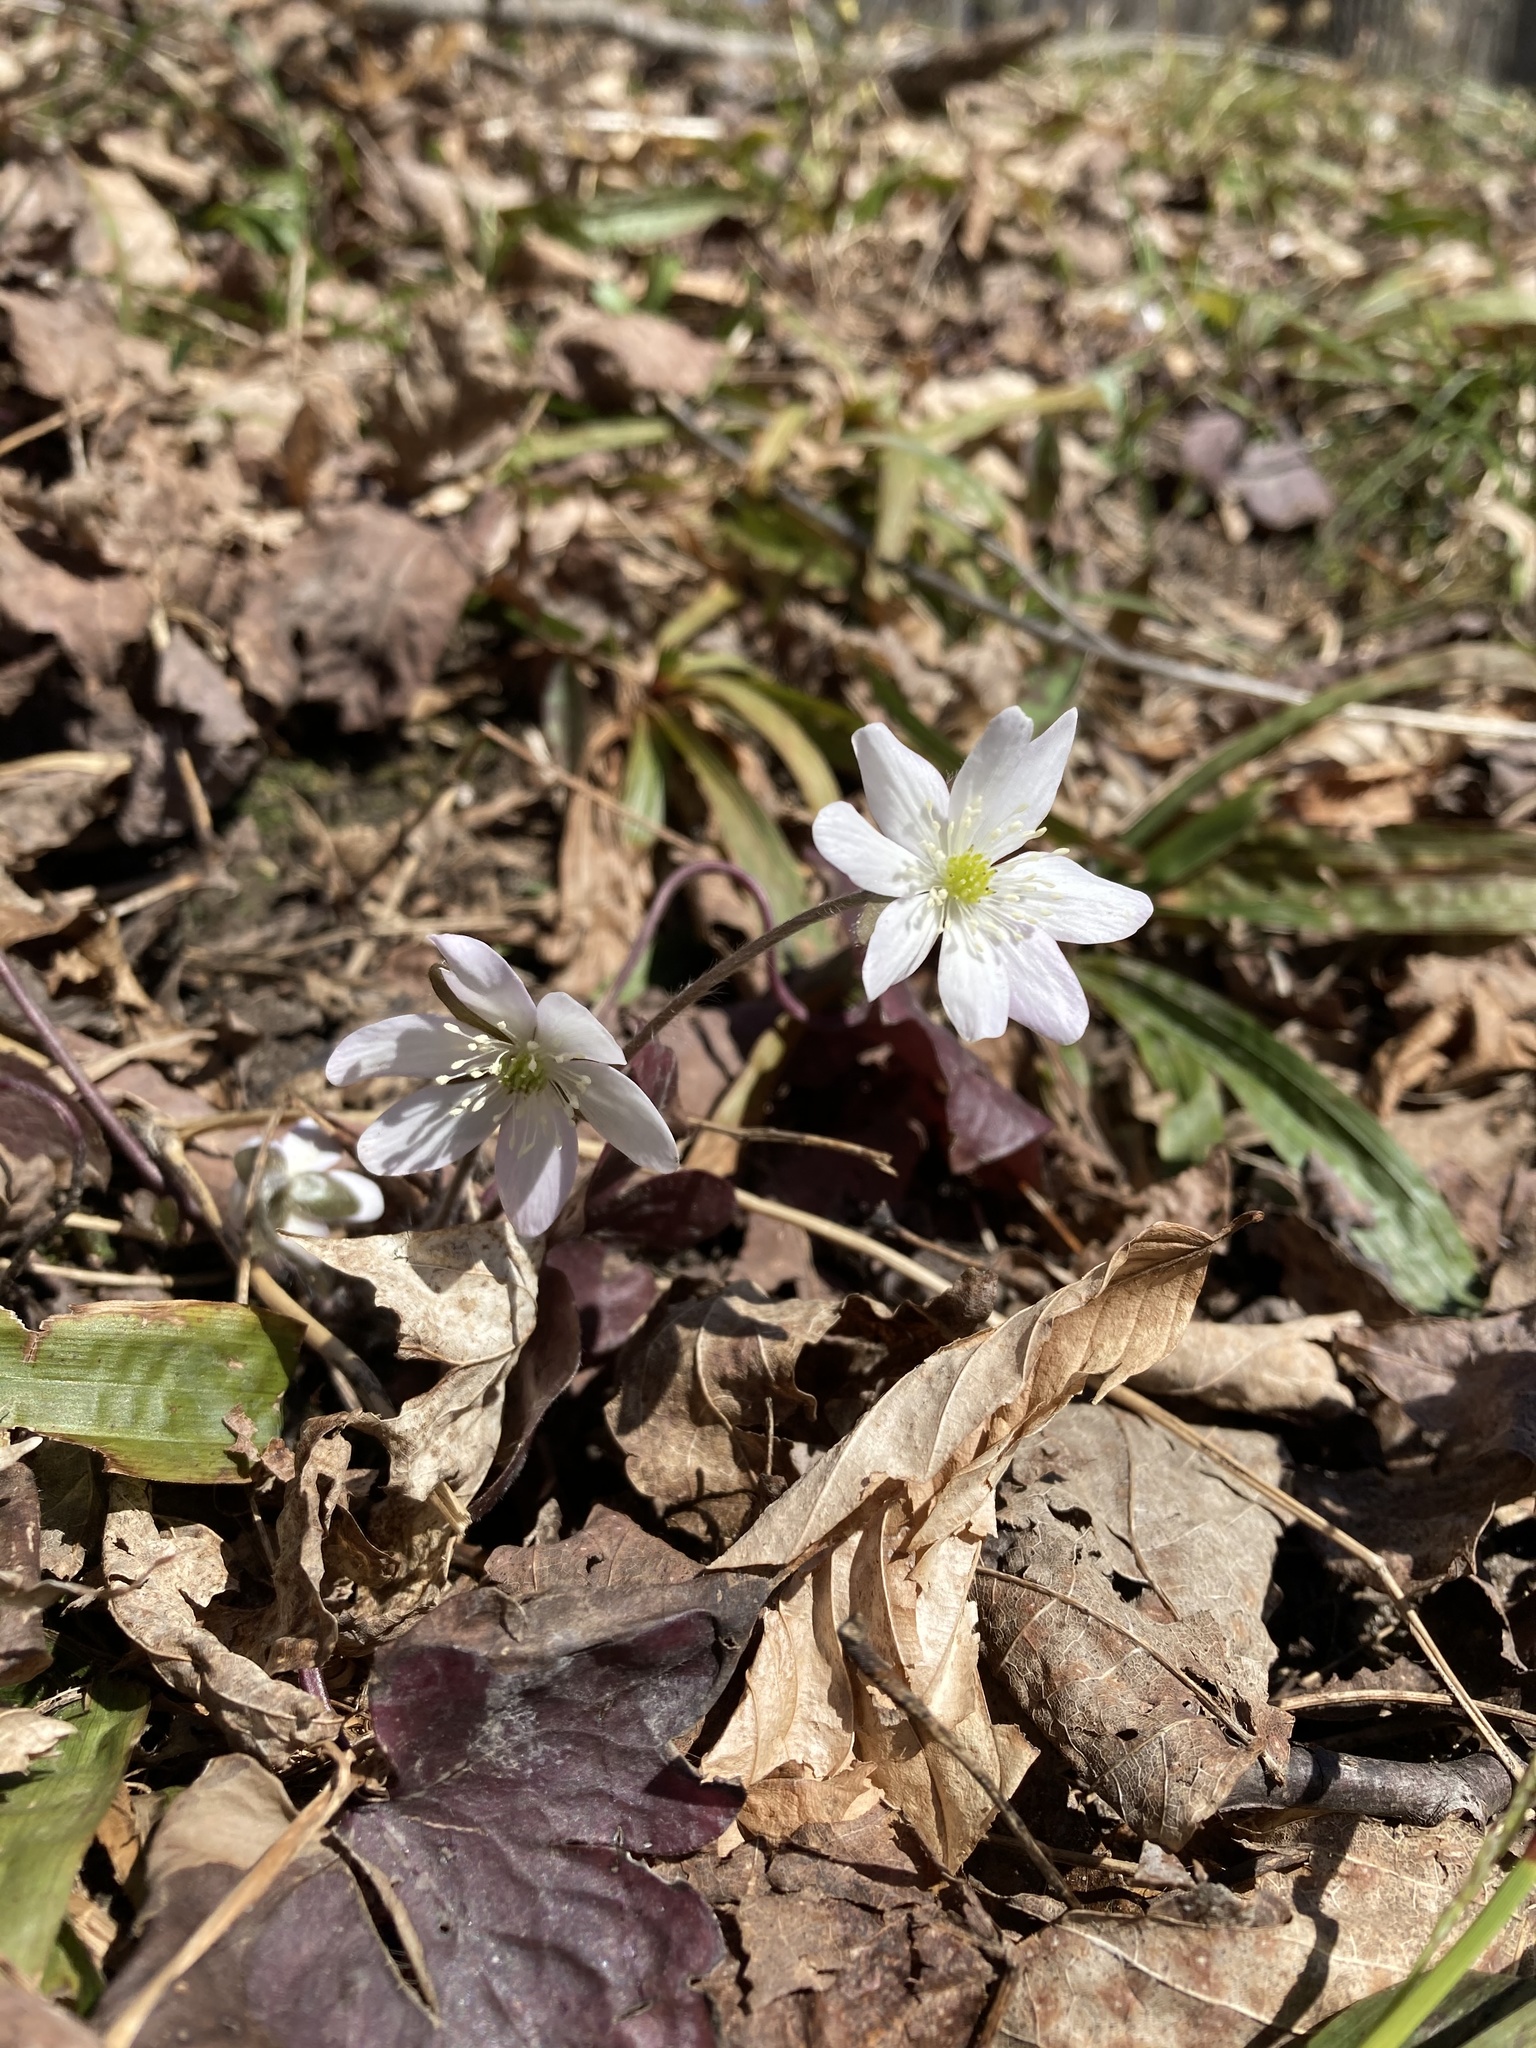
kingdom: Plantae
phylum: Tracheophyta
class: Magnoliopsida
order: Ranunculales
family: Ranunculaceae
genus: Hepatica
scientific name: Hepatica acutiloba
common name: Sharp-lobed hepatica
